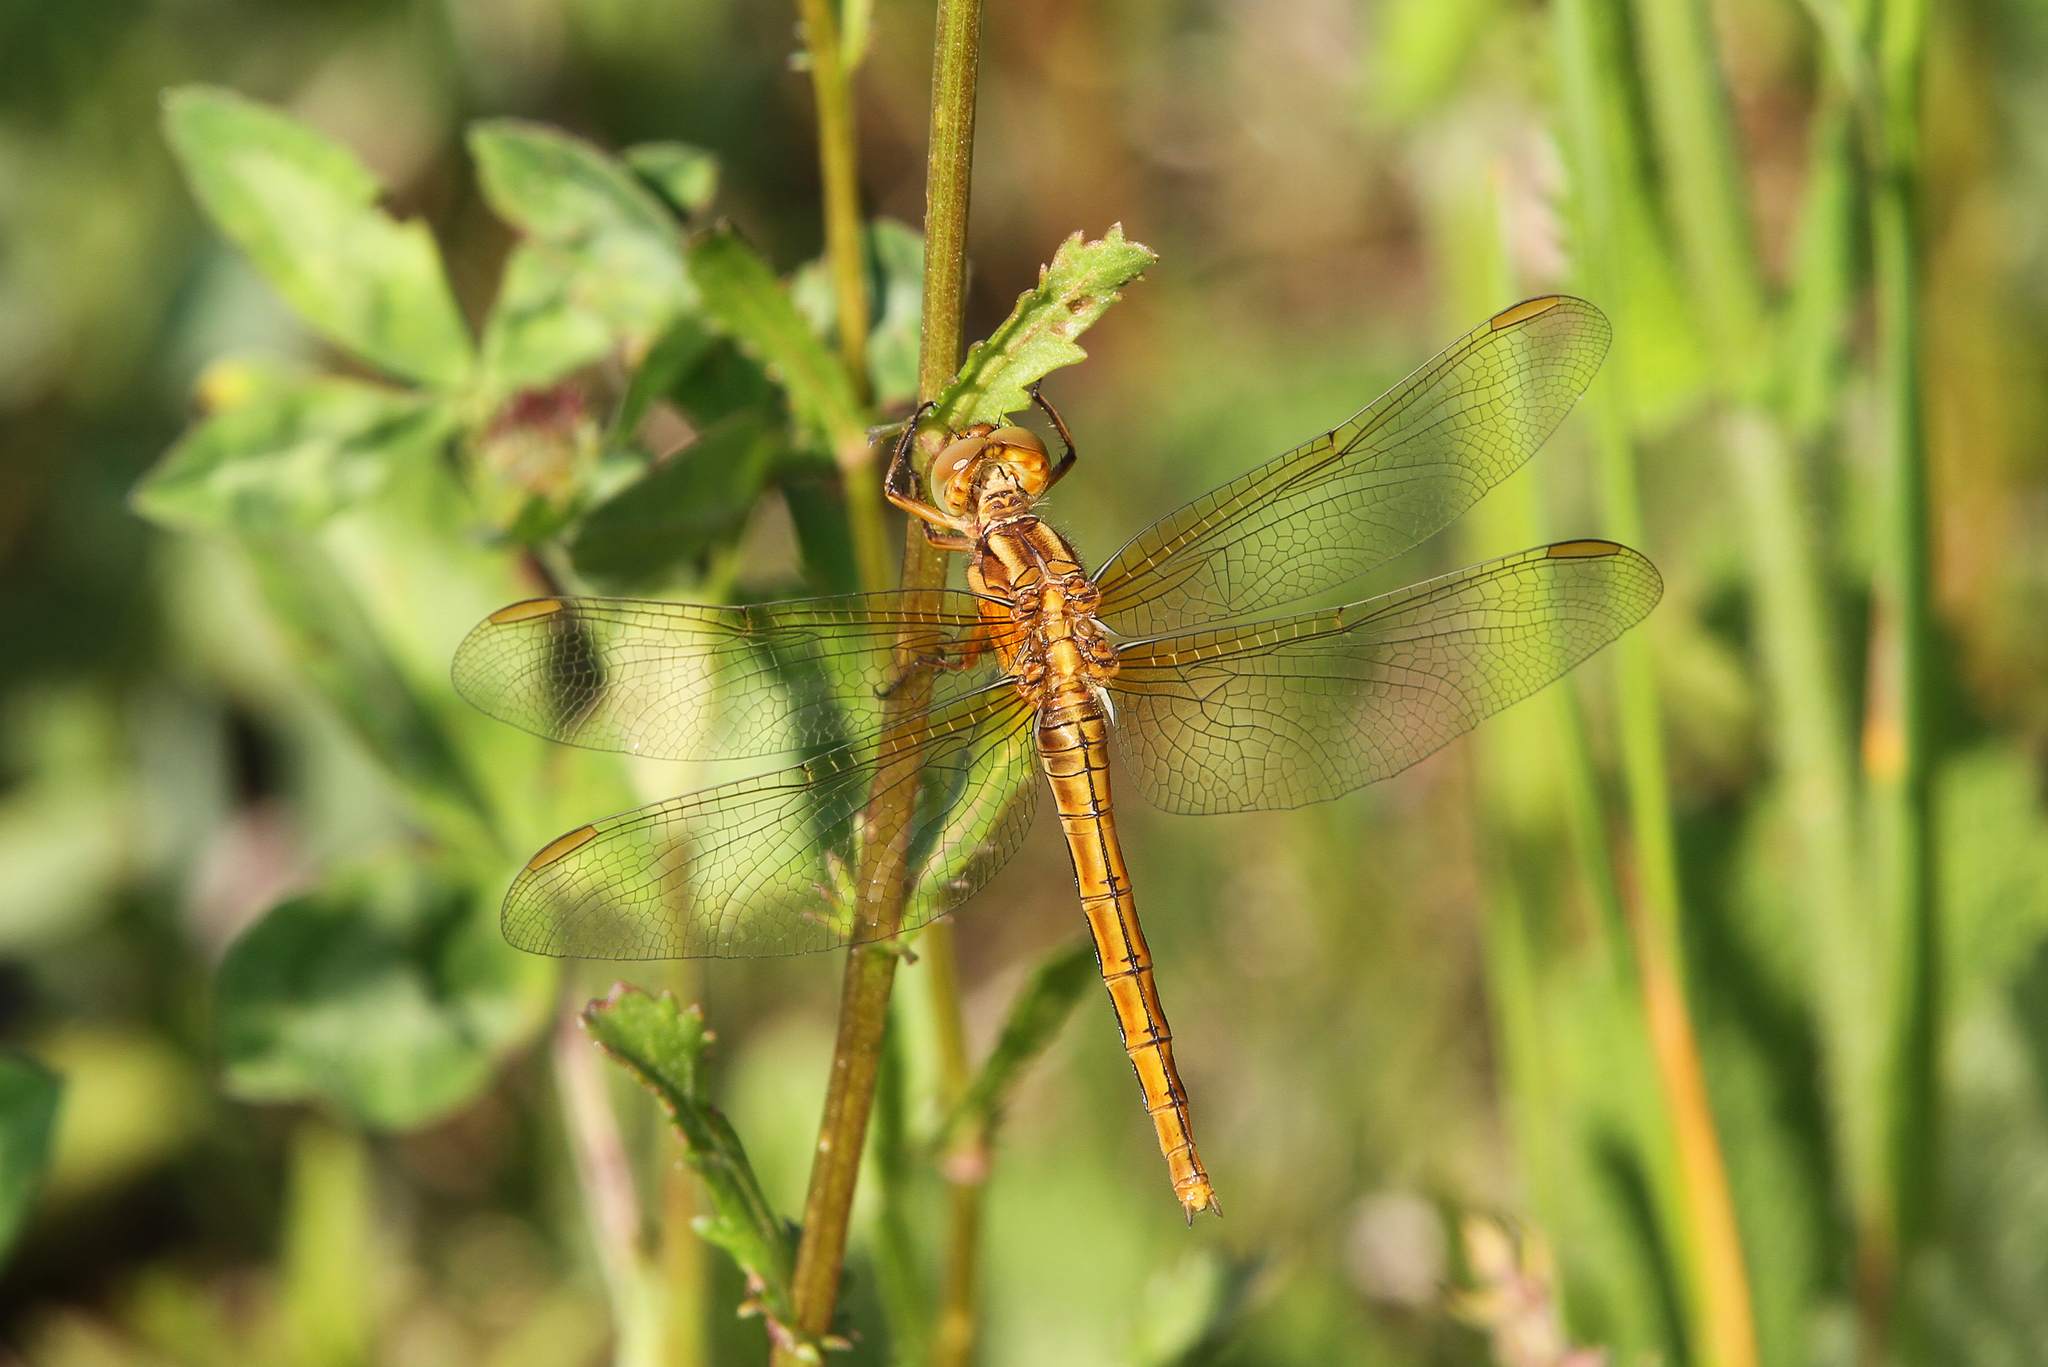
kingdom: Animalia
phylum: Arthropoda
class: Insecta
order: Odonata
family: Libellulidae
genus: Orthetrum
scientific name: Orthetrum coerulescens
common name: Keeled skimmer
